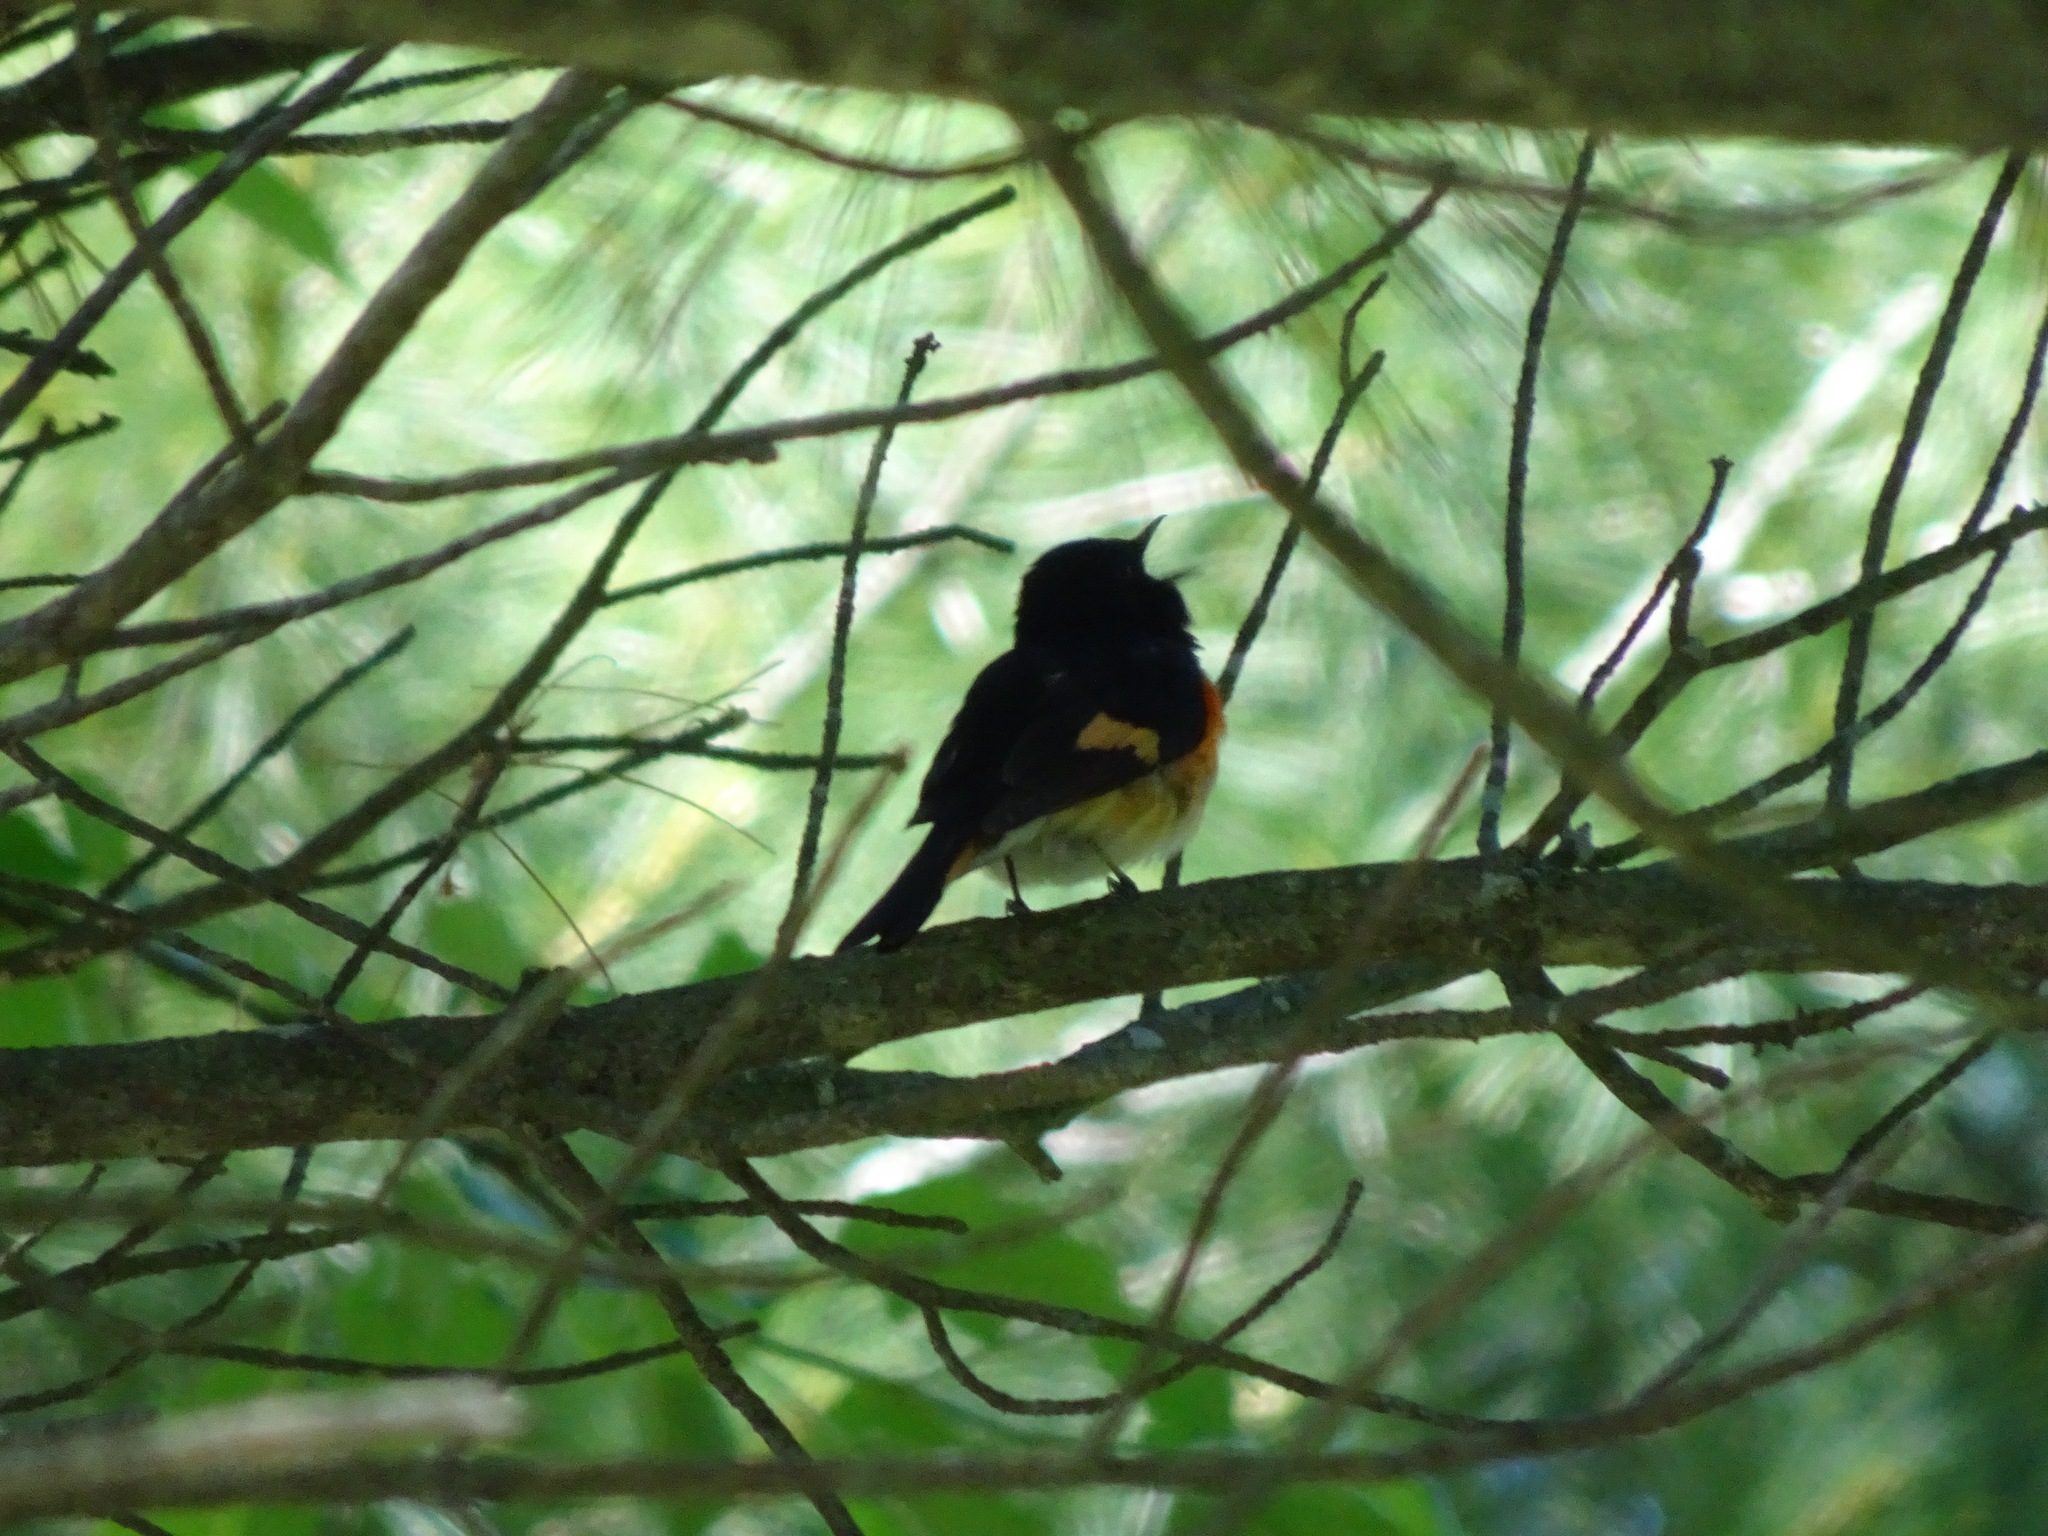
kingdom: Animalia
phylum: Chordata
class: Aves
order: Passeriformes
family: Parulidae
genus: Setophaga
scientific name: Setophaga ruticilla
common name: American redstart
